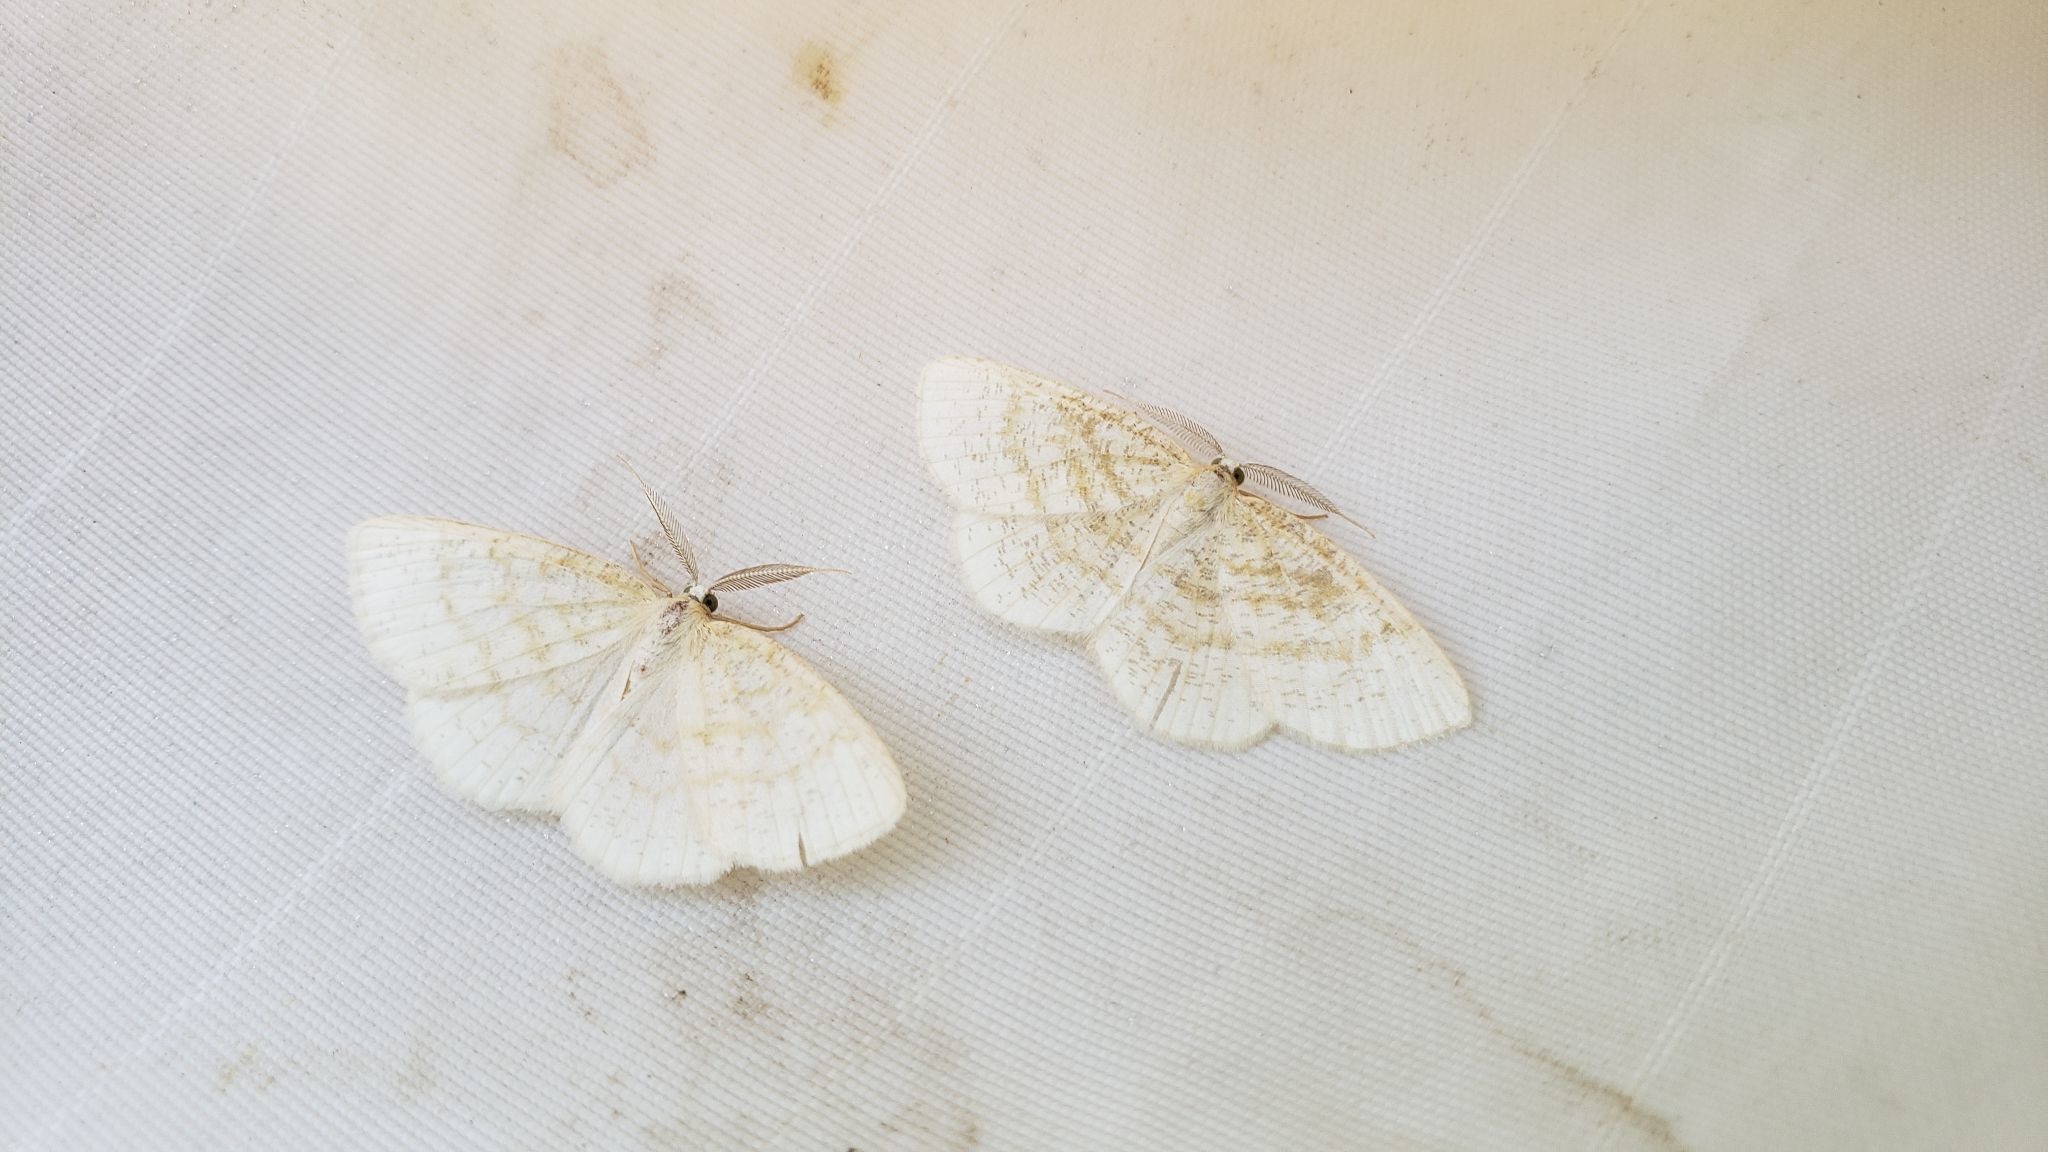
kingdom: Animalia
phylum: Arthropoda
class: Insecta
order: Lepidoptera
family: Geometridae
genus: Cabera
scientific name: Cabera erythemaria
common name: Yellow-dusted cream moth
